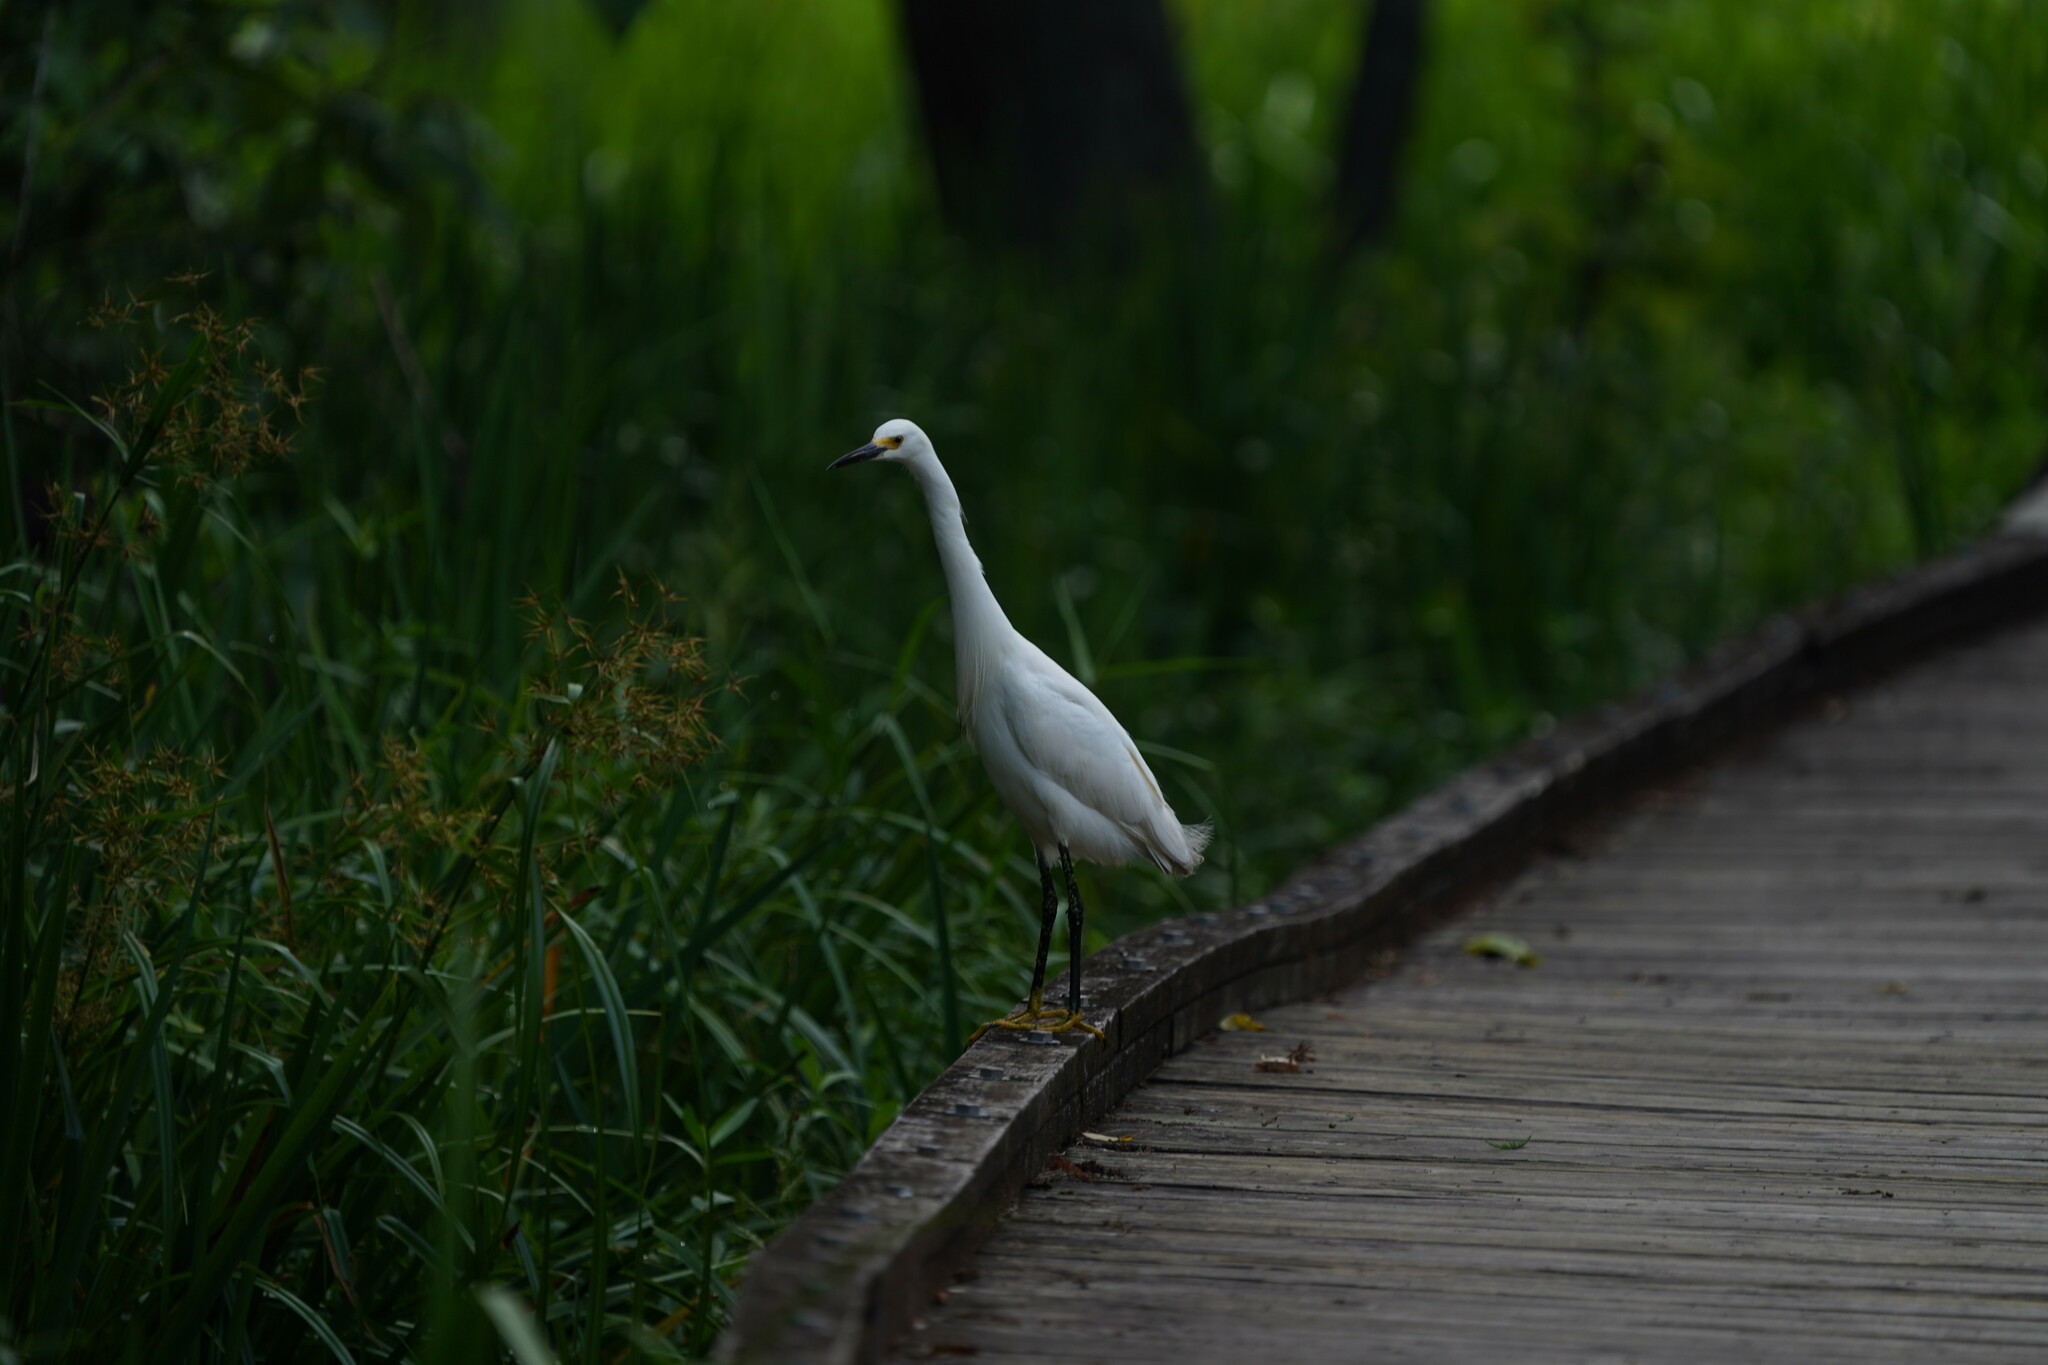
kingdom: Animalia
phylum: Chordata
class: Aves
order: Pelecaniformes
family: Ardeidae
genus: Egretta
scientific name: Egretta thula
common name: Snowy egret
